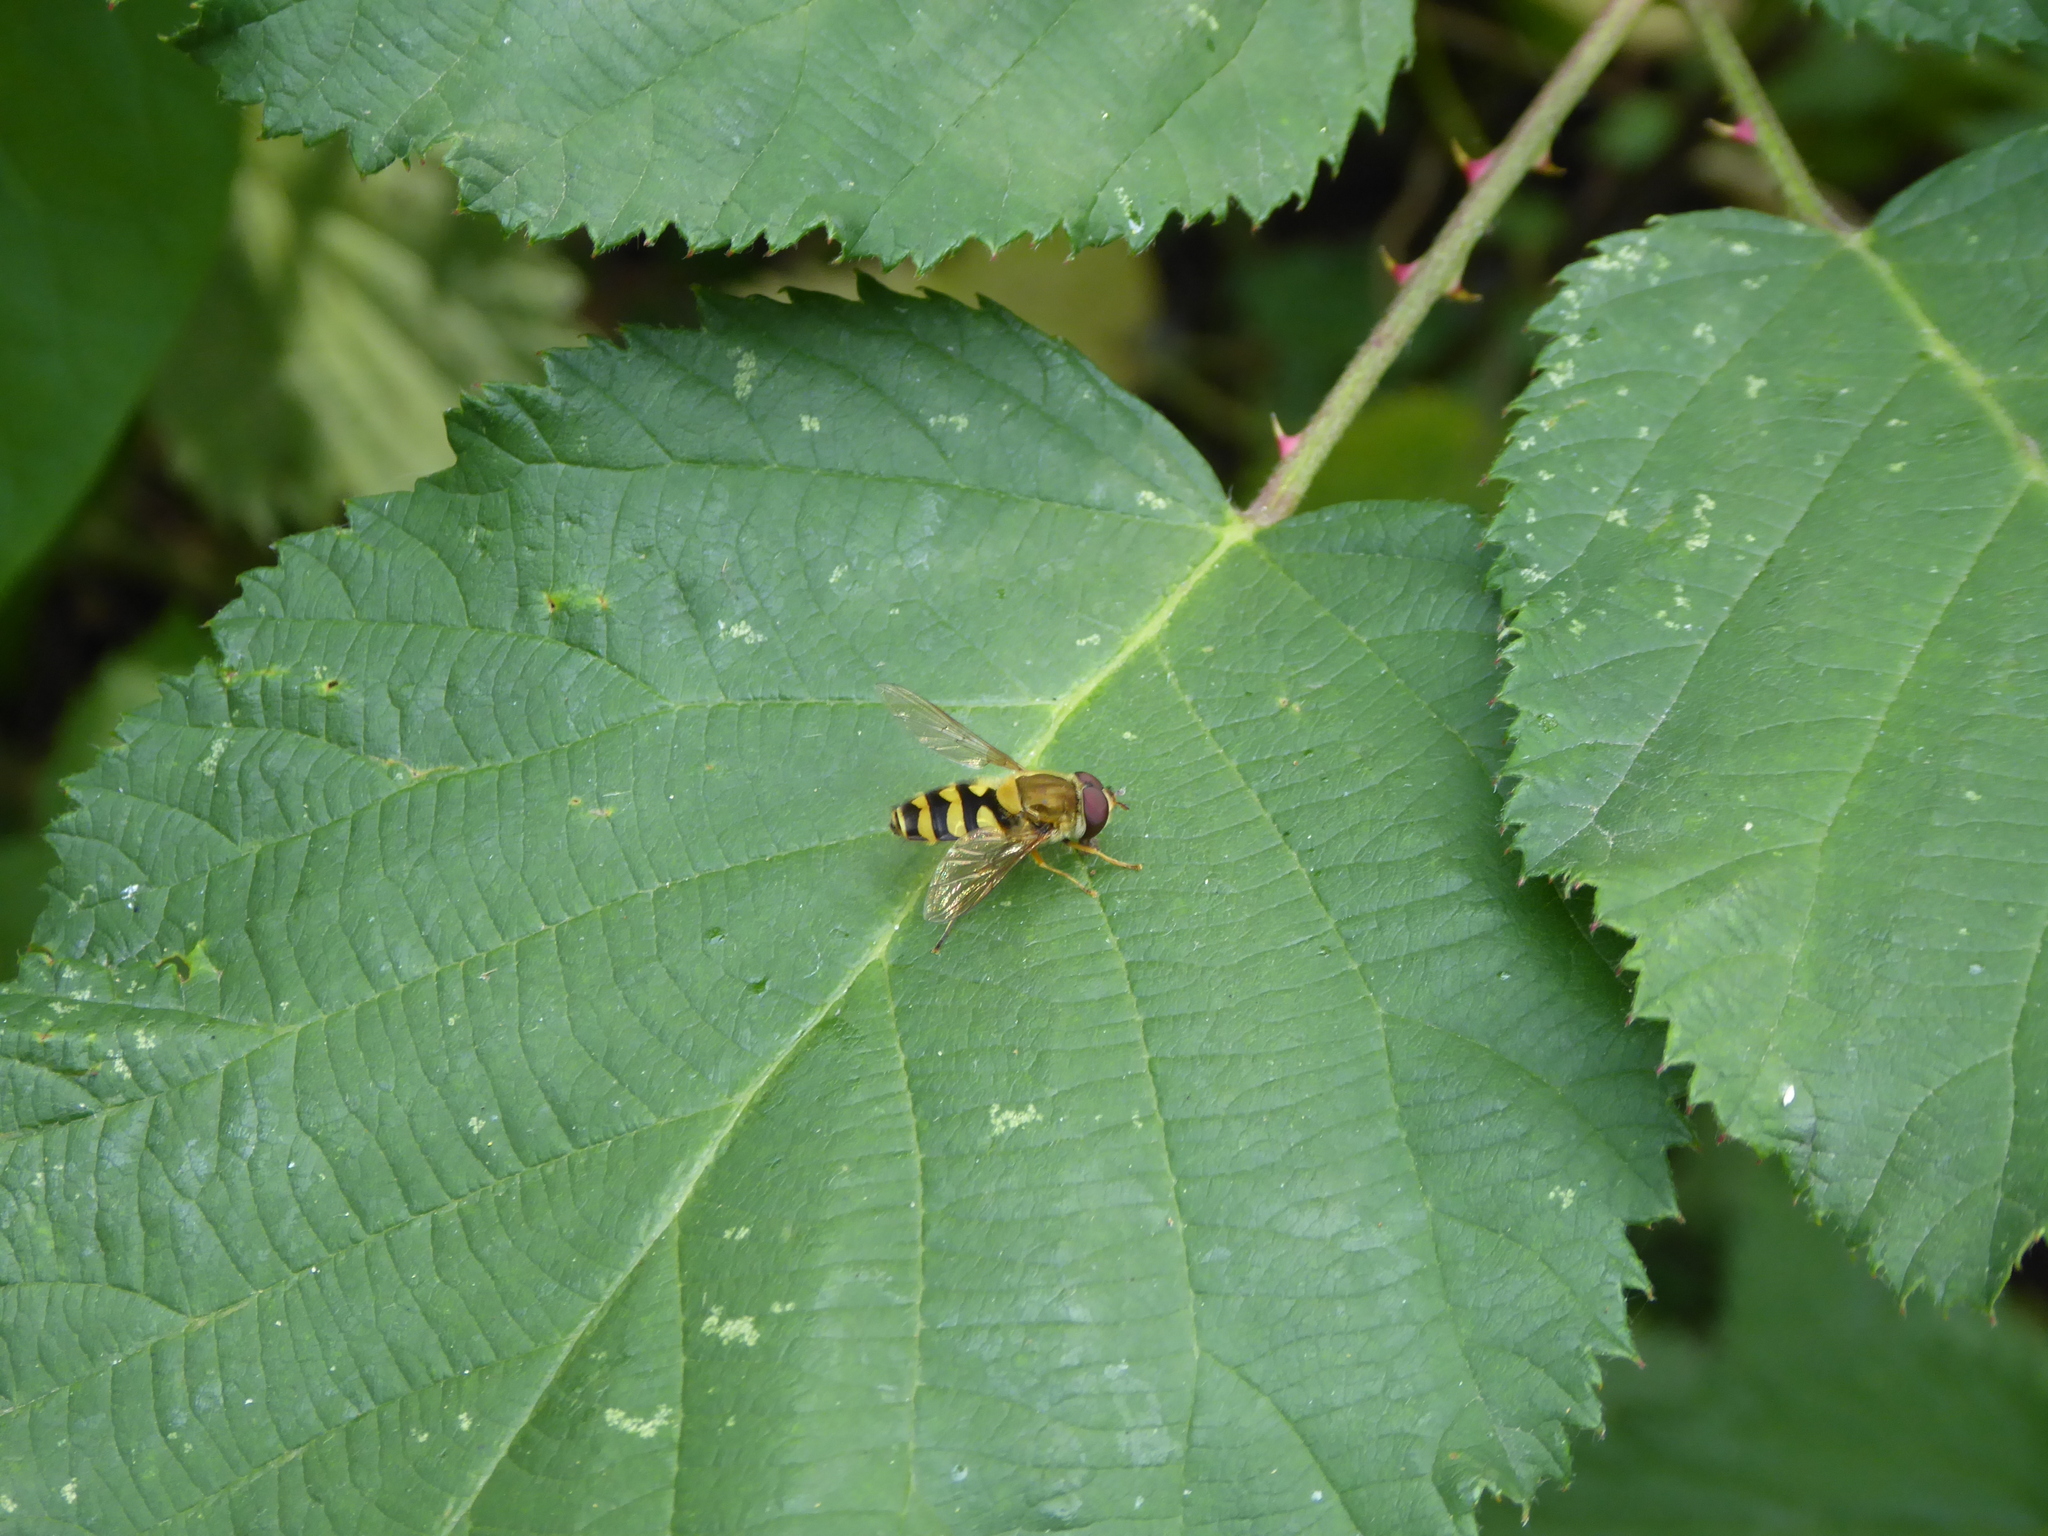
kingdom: Animalia
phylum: Arthropoda
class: Insecta
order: Diptera
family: Syrphidae
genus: Syrphus
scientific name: Syrphus
